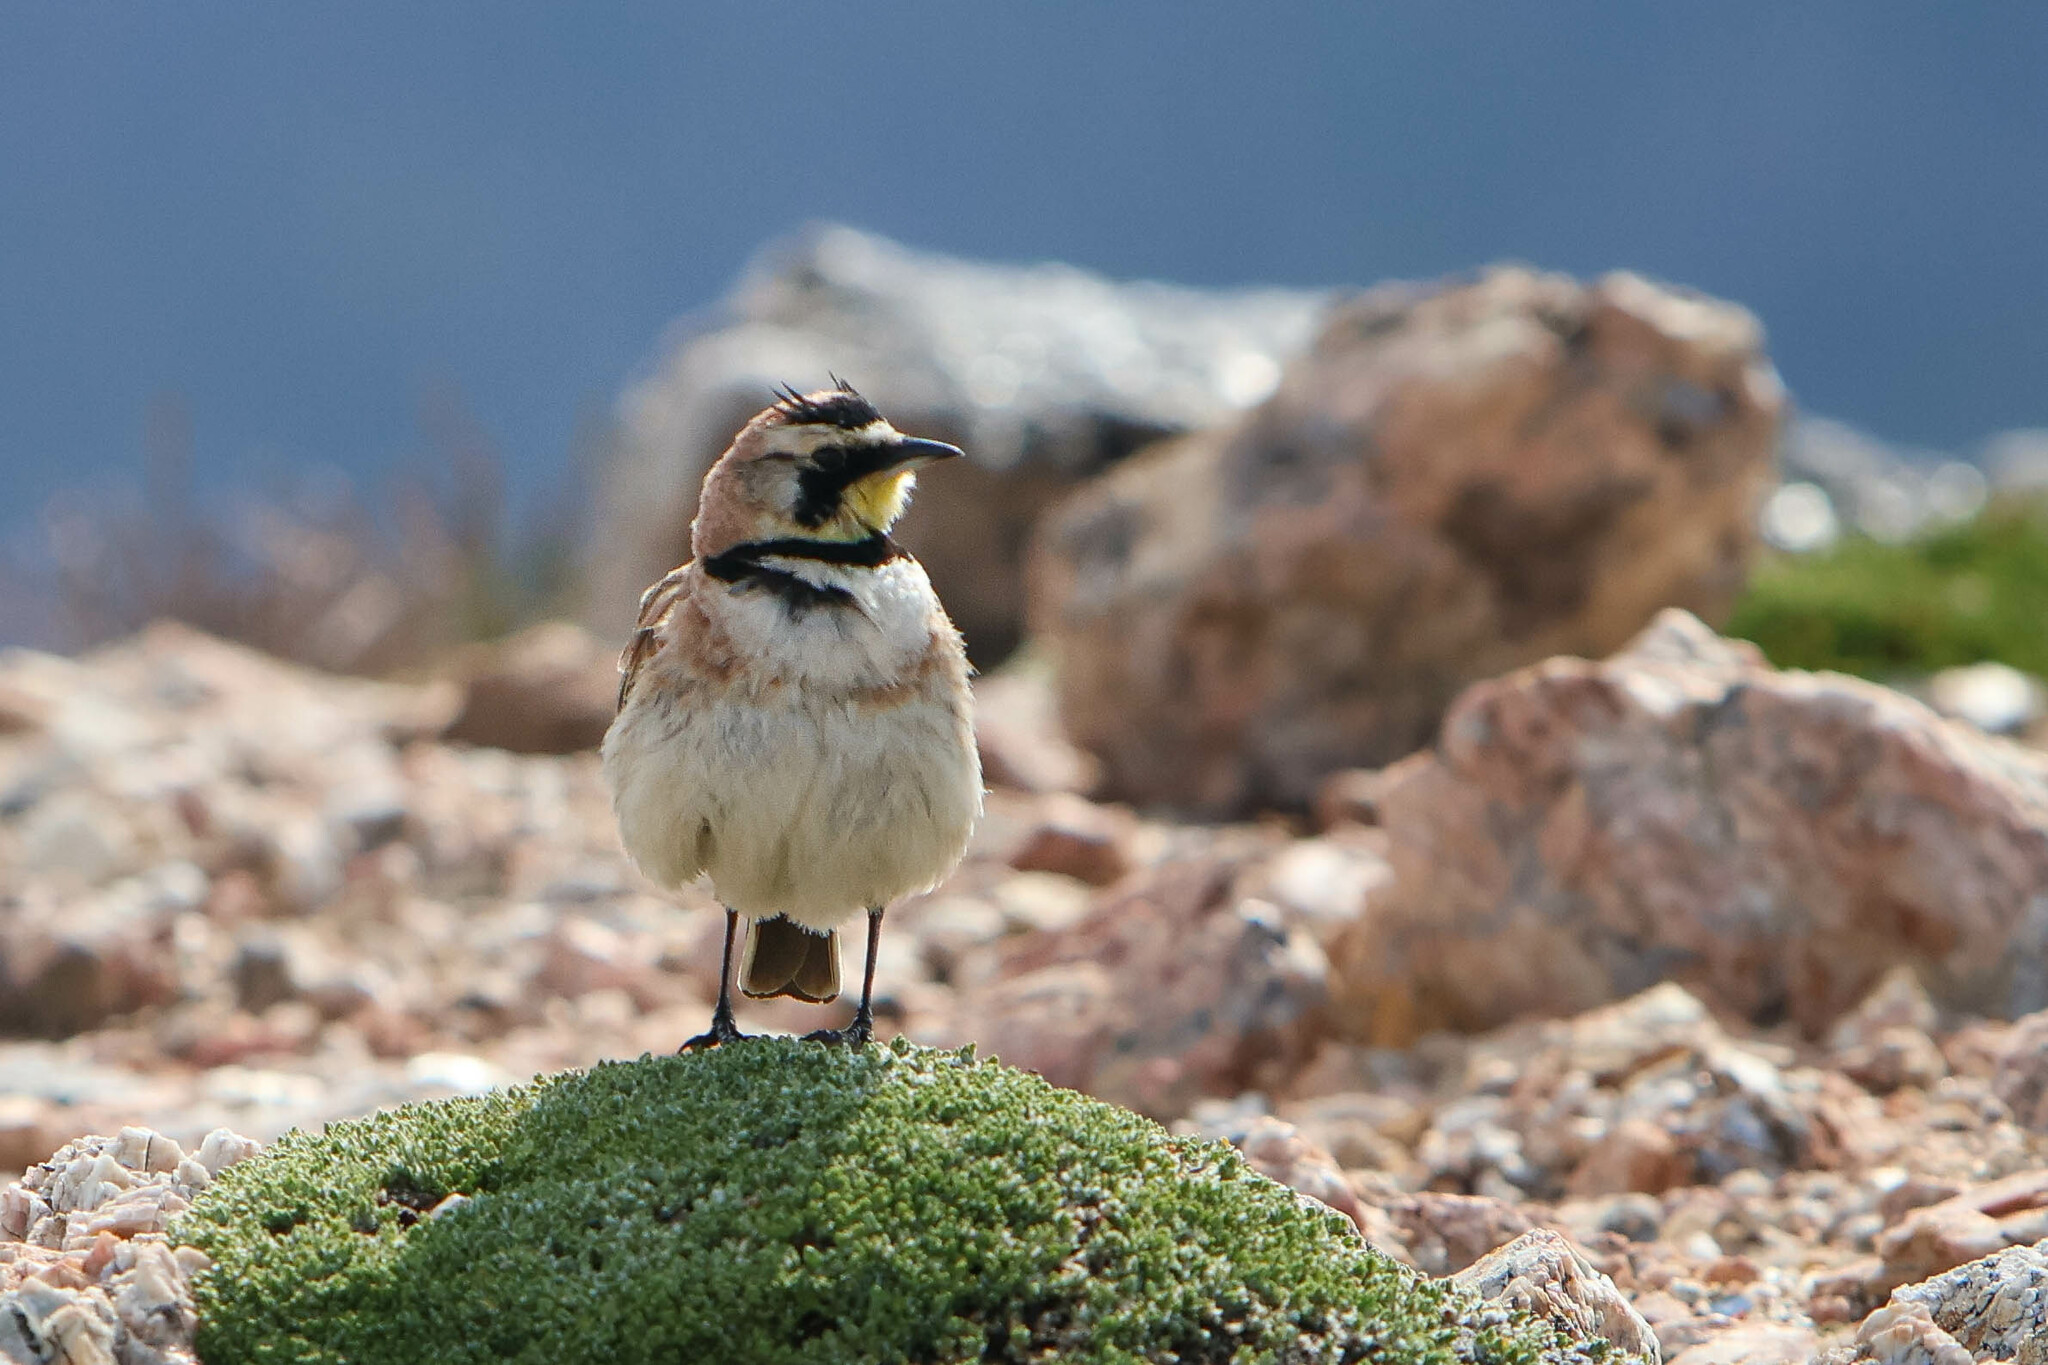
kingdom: Animalia
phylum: Chordata
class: Aves
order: Passeriformes
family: Alaudidae
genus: Eremophila
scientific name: Eremophila alpestris
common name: Horned lark
